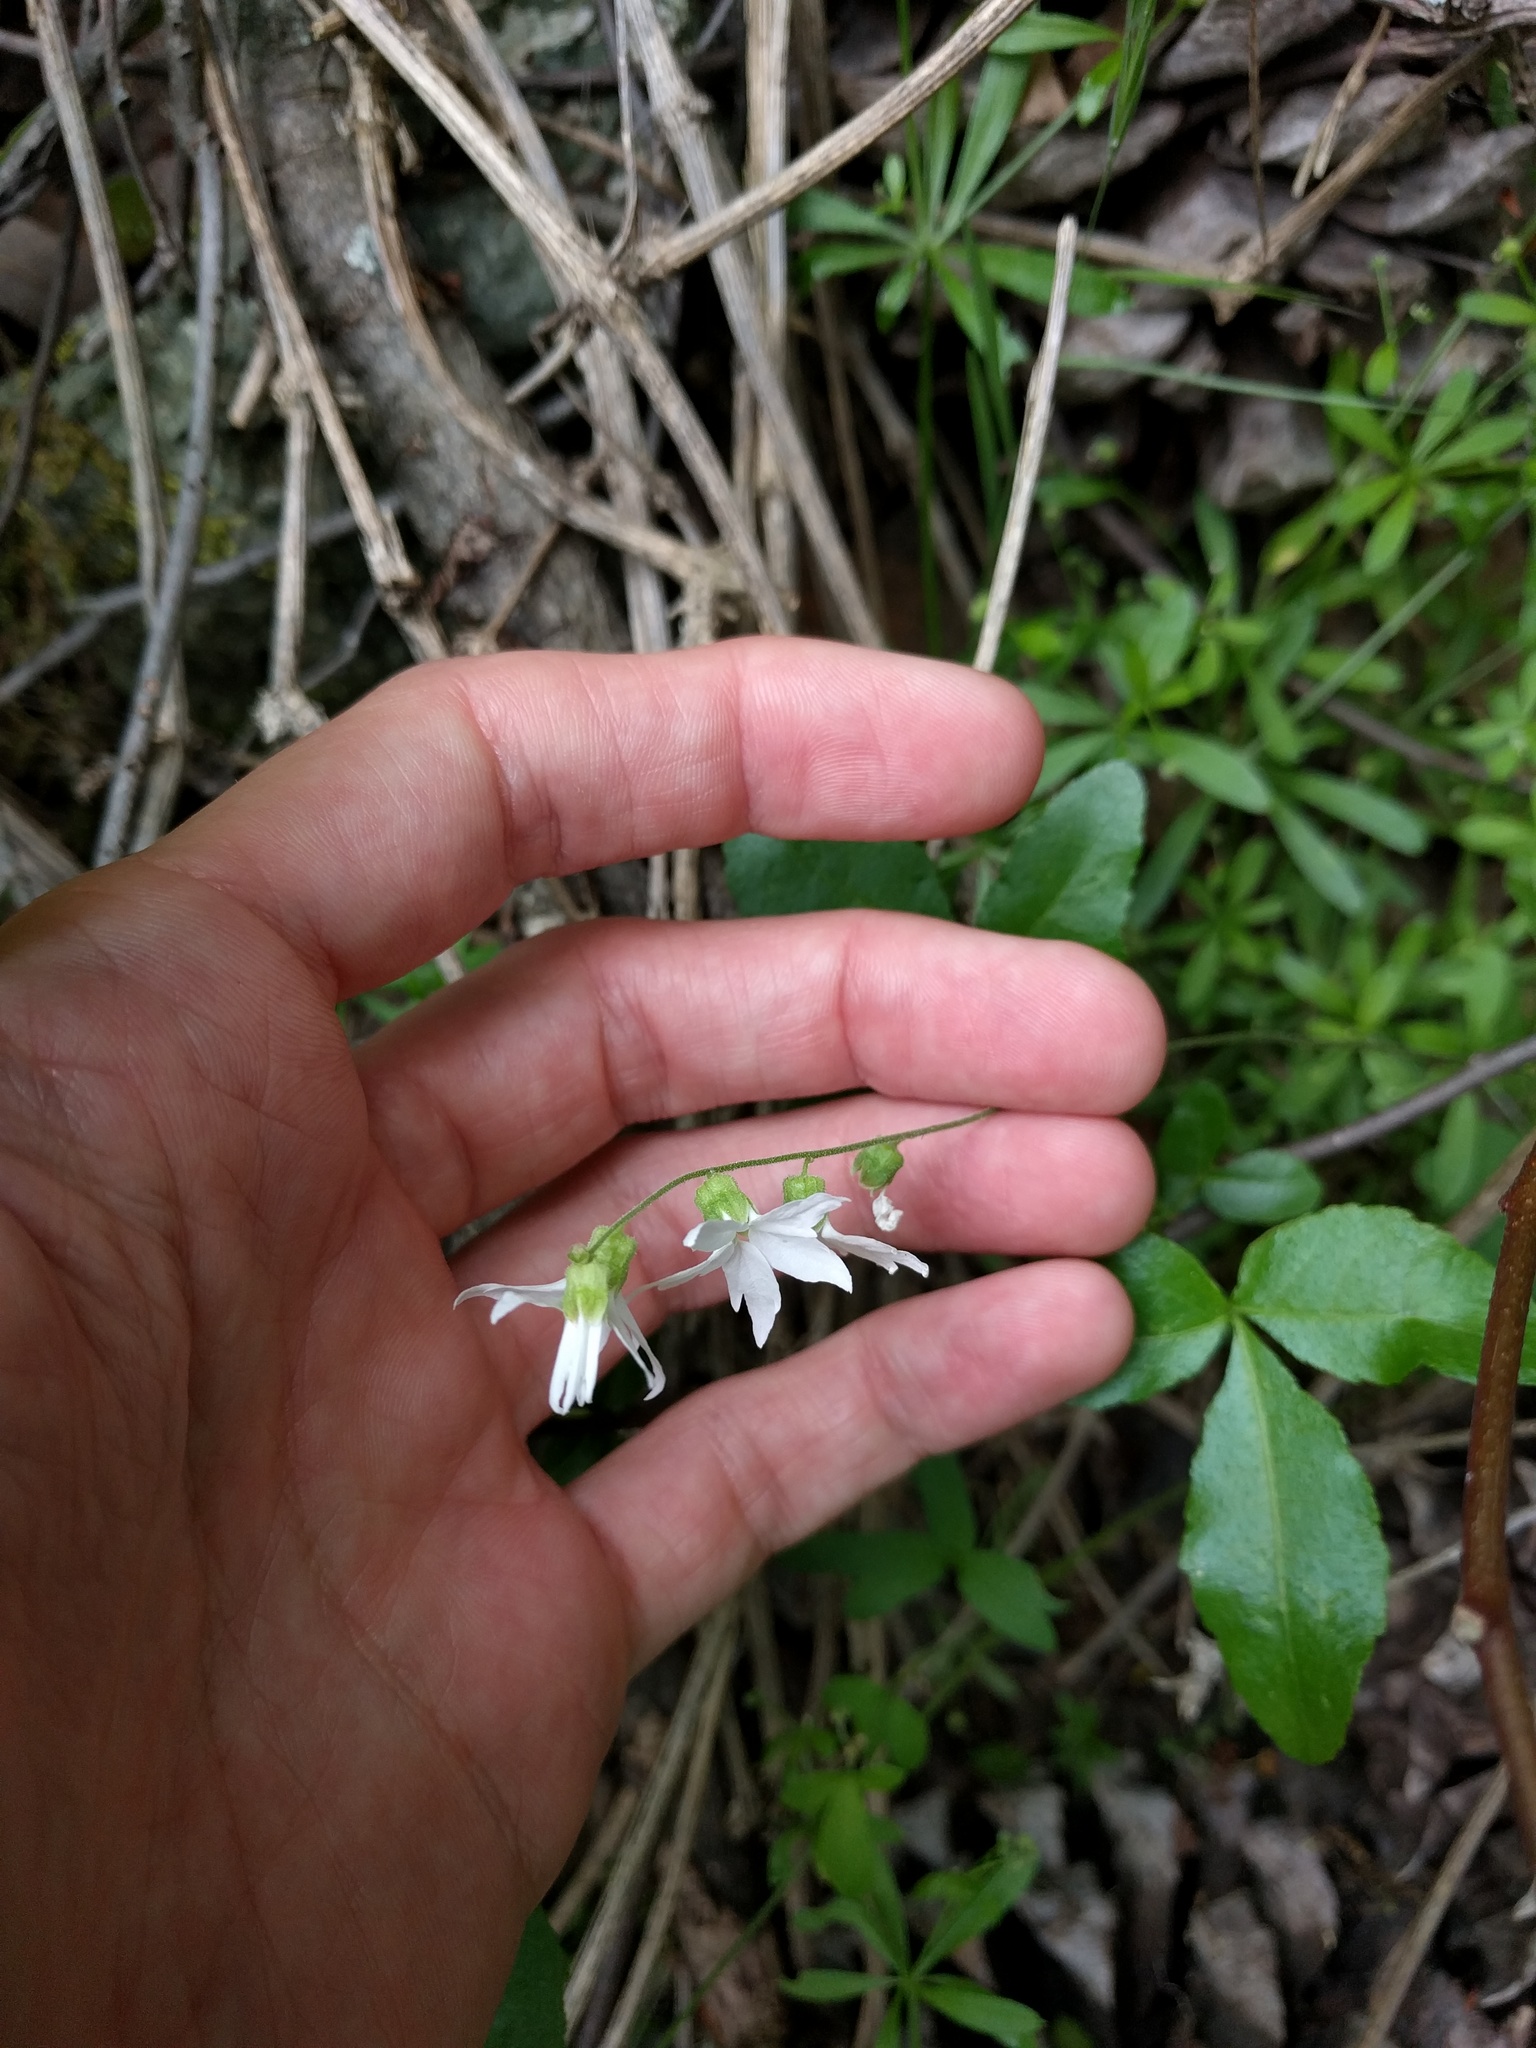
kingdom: Plantae
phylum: Tracheophyta
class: Magnoliopsida
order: Saxifragales
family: Saxifragaceae
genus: Lithophragma
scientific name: Lithophragma heterophyllum
